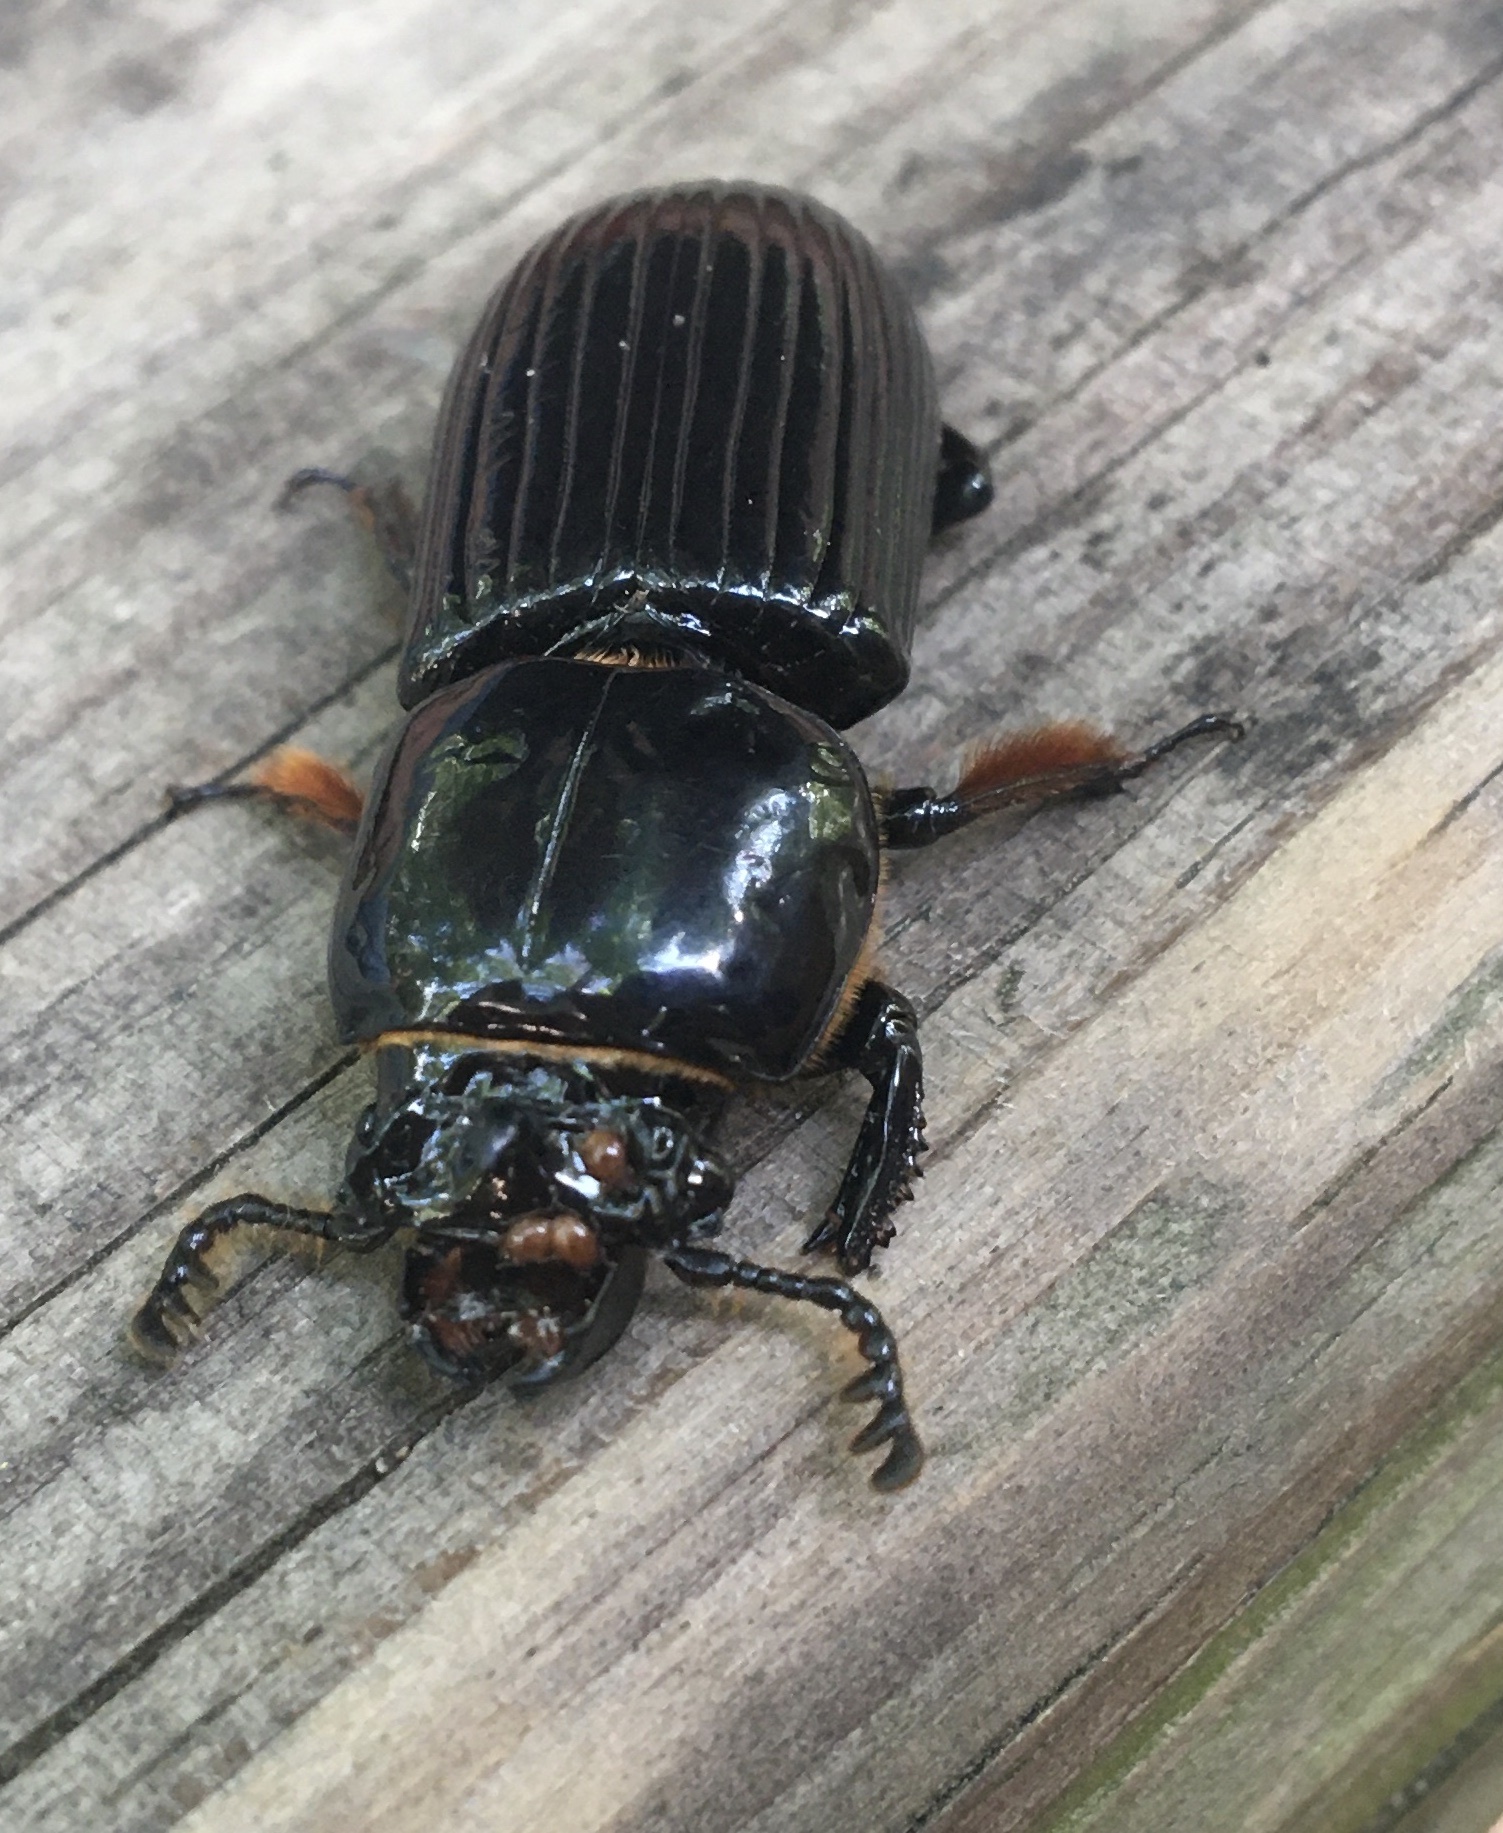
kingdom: Animalia
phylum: Arthropoda
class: Insecta
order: Coleoptera
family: Passalidae
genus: Odontotaenius
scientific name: Odontotaenius disjunctus
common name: Patent leather beetle
